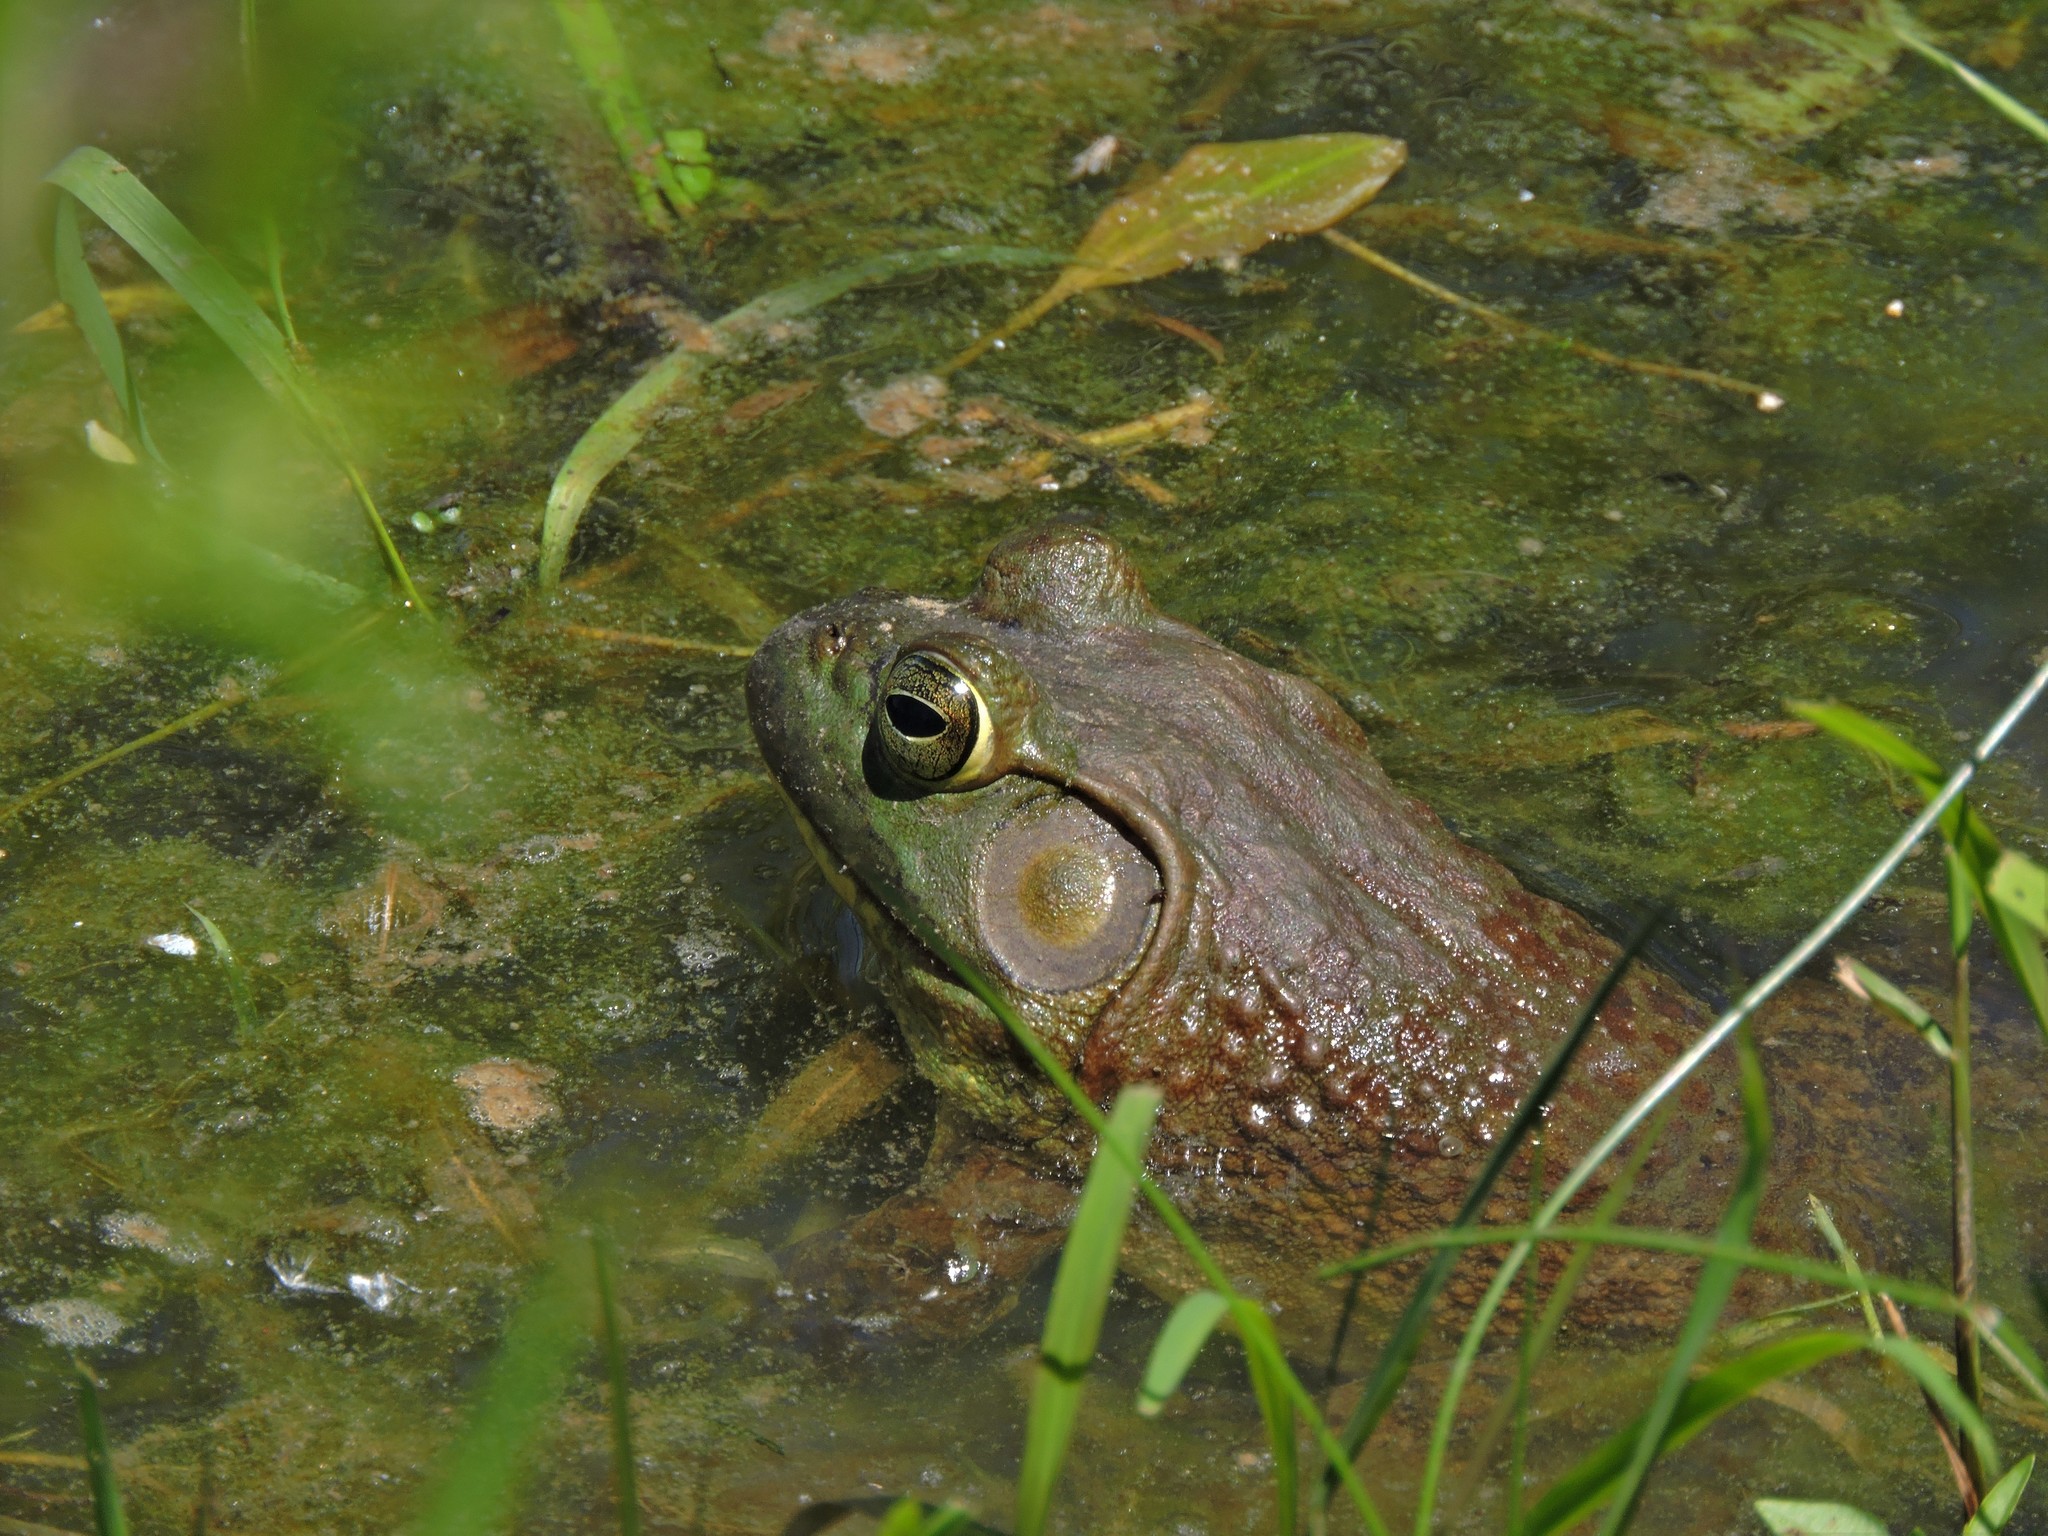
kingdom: Animalia
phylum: Chordata
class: Amphibia
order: Anura
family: Ranidae
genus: Lithobates
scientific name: Lithobates catesbeianus
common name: American bullfrog
